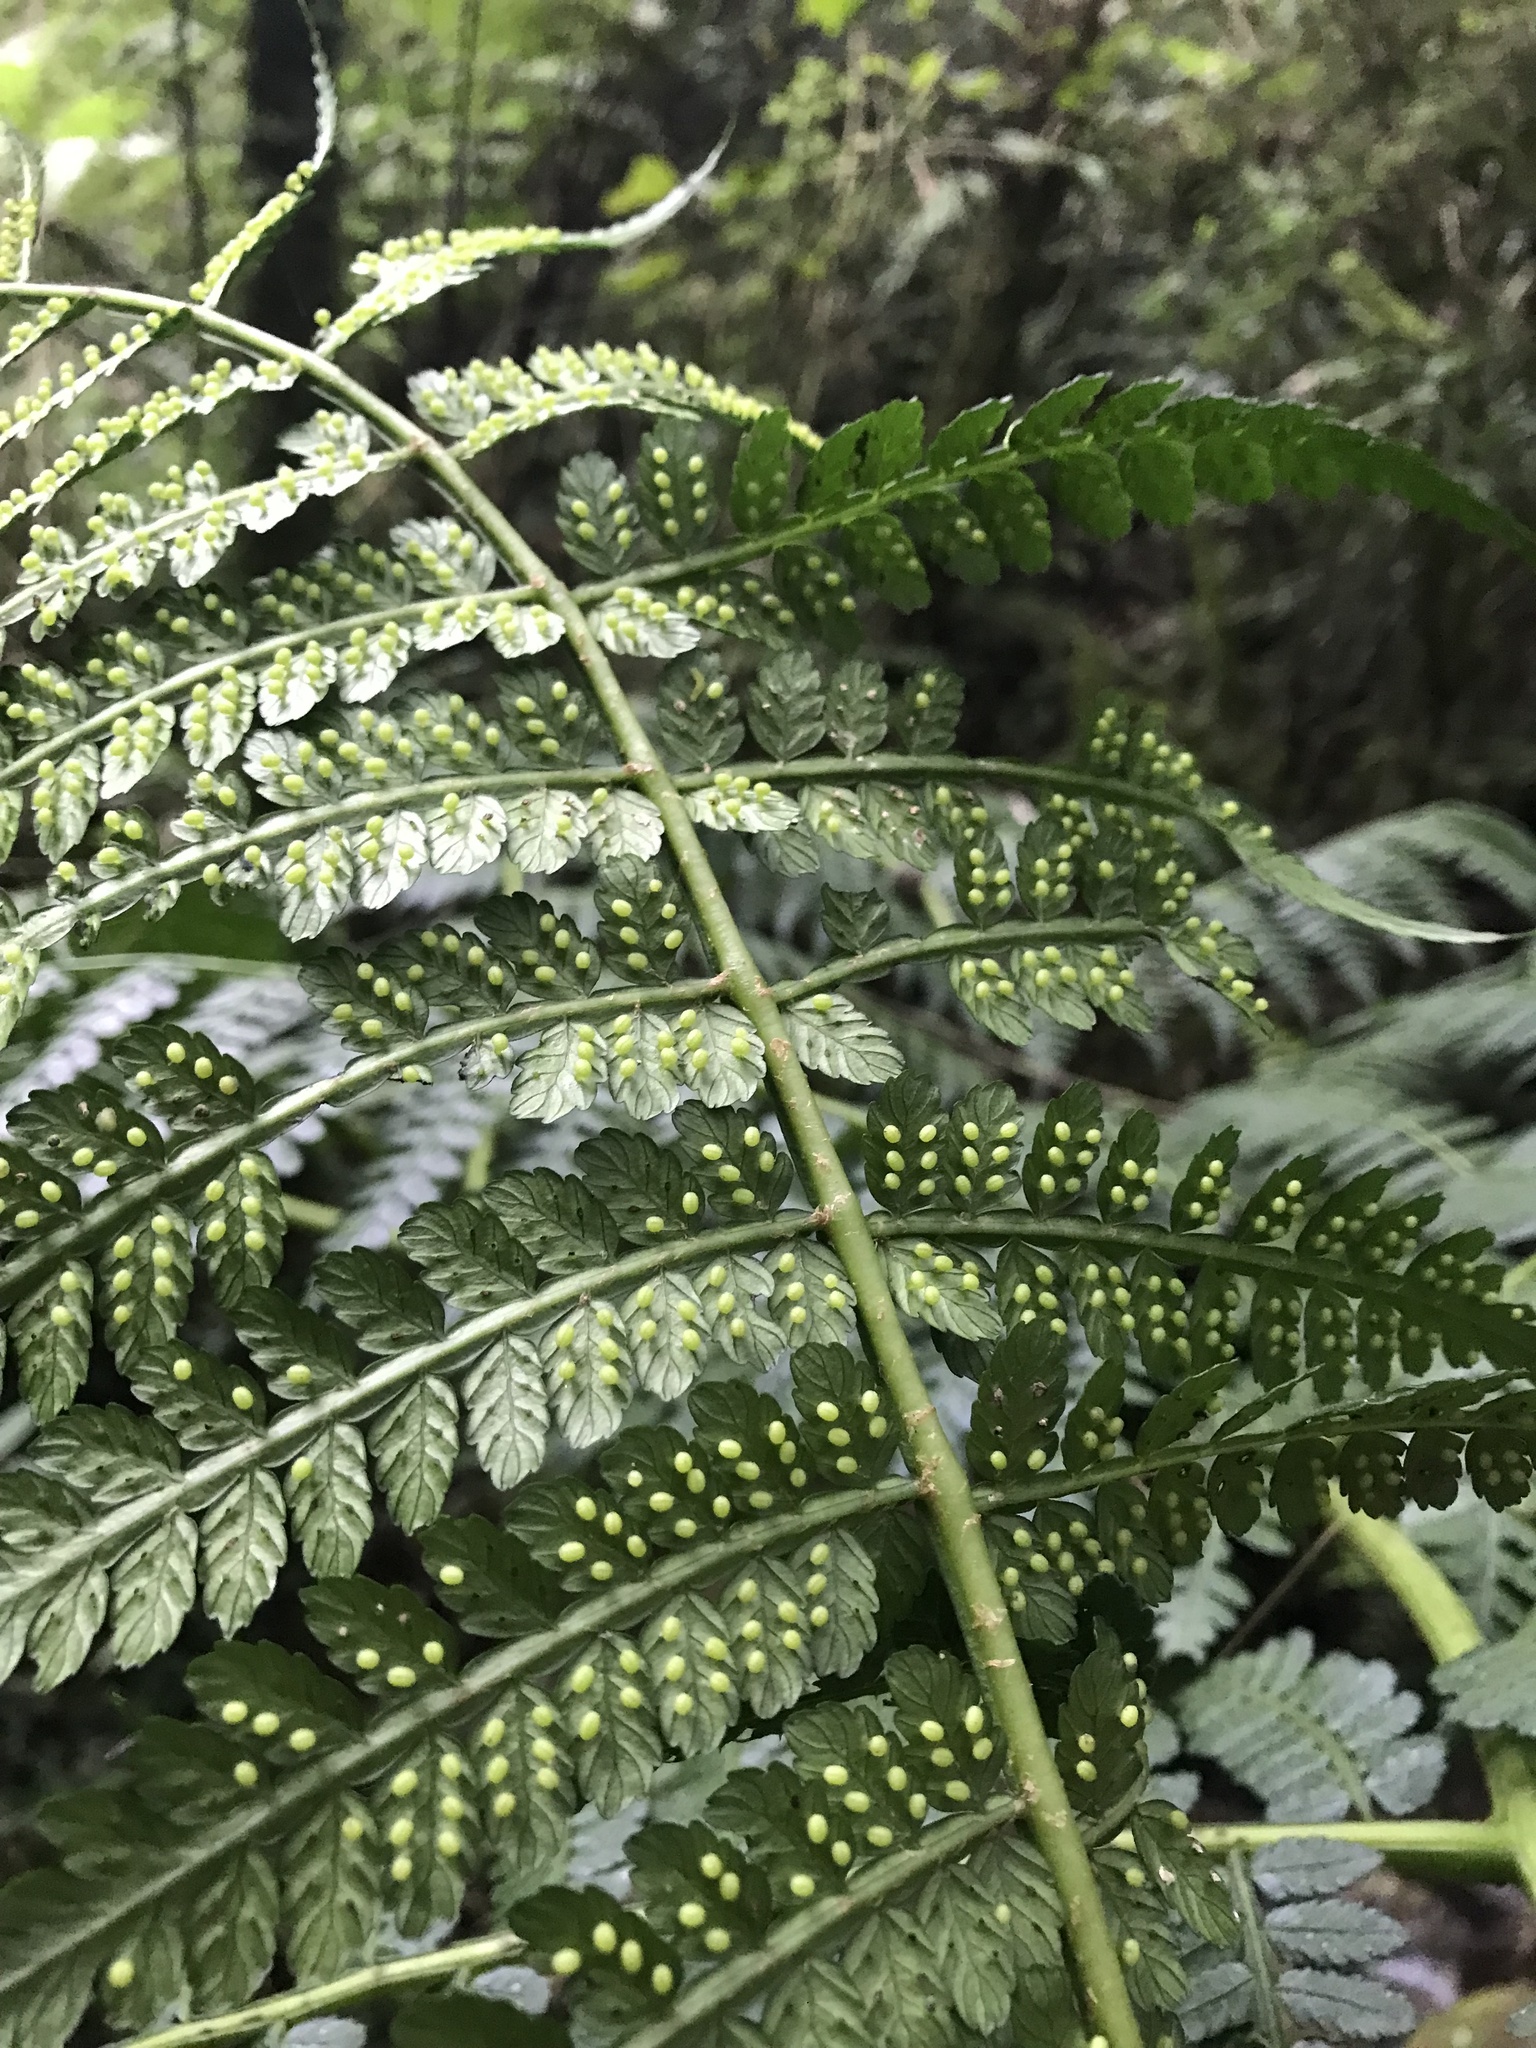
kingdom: Plantae
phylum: Tracheophyta
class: Polypodiopsida
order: Marattiales
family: Marattiaceae
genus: Eupodium
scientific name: Eupodium pittieri
